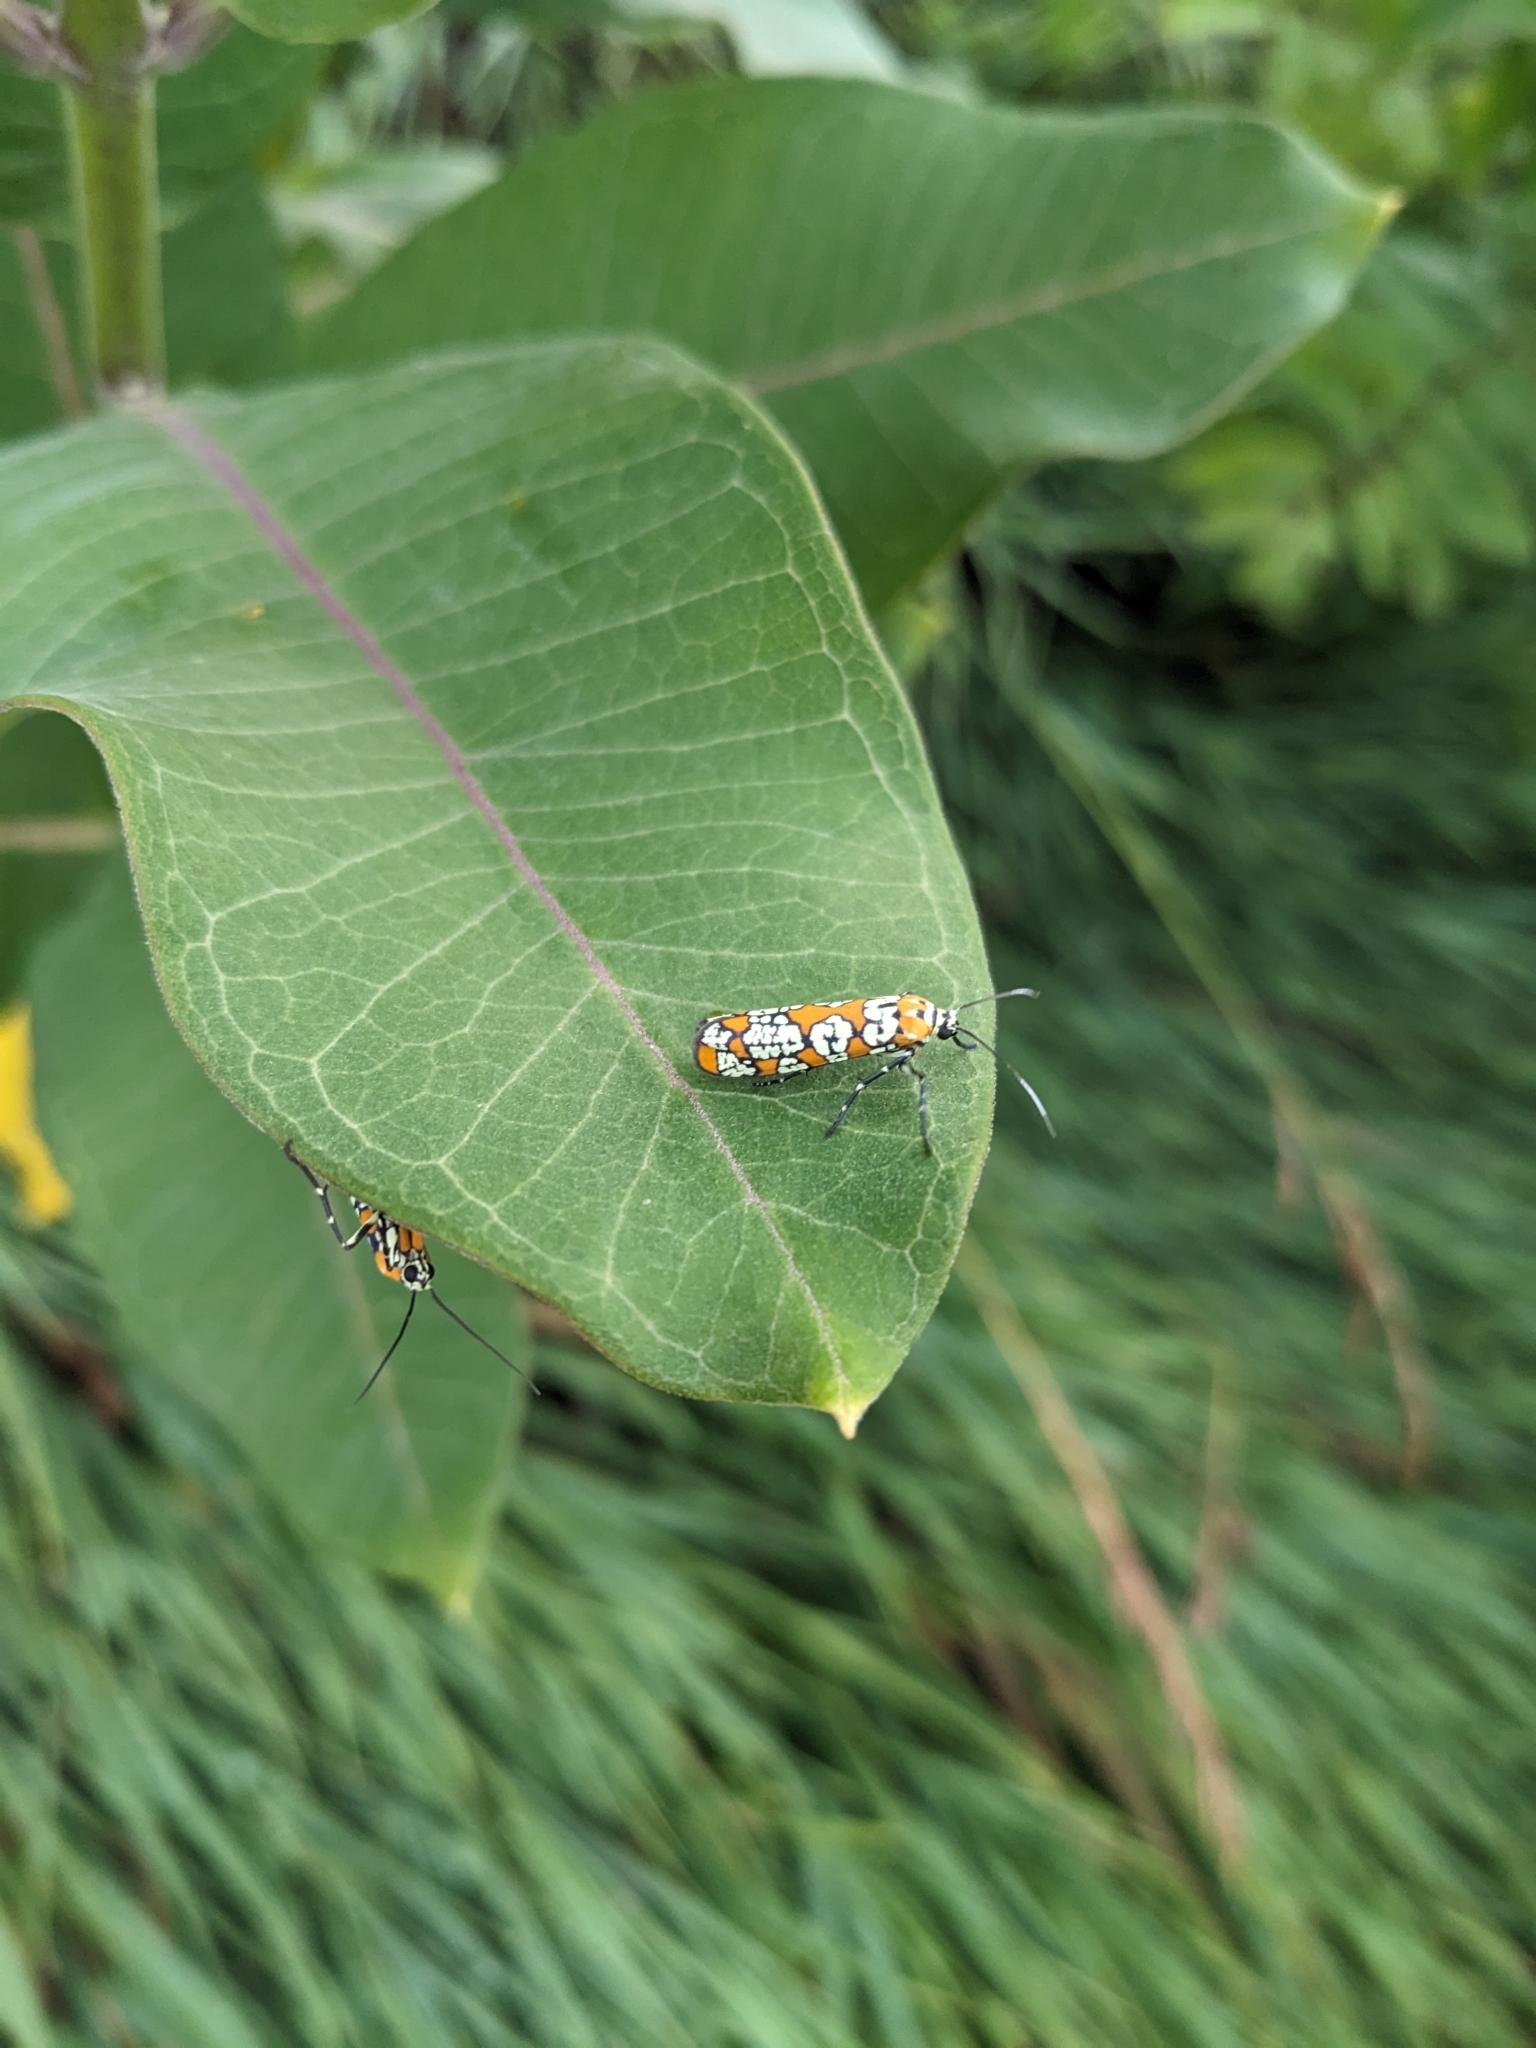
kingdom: Animalia
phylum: Arthropoda
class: Insecta
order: Lepidoptera
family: Attevidae
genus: Atteva
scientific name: Atteva punctella
